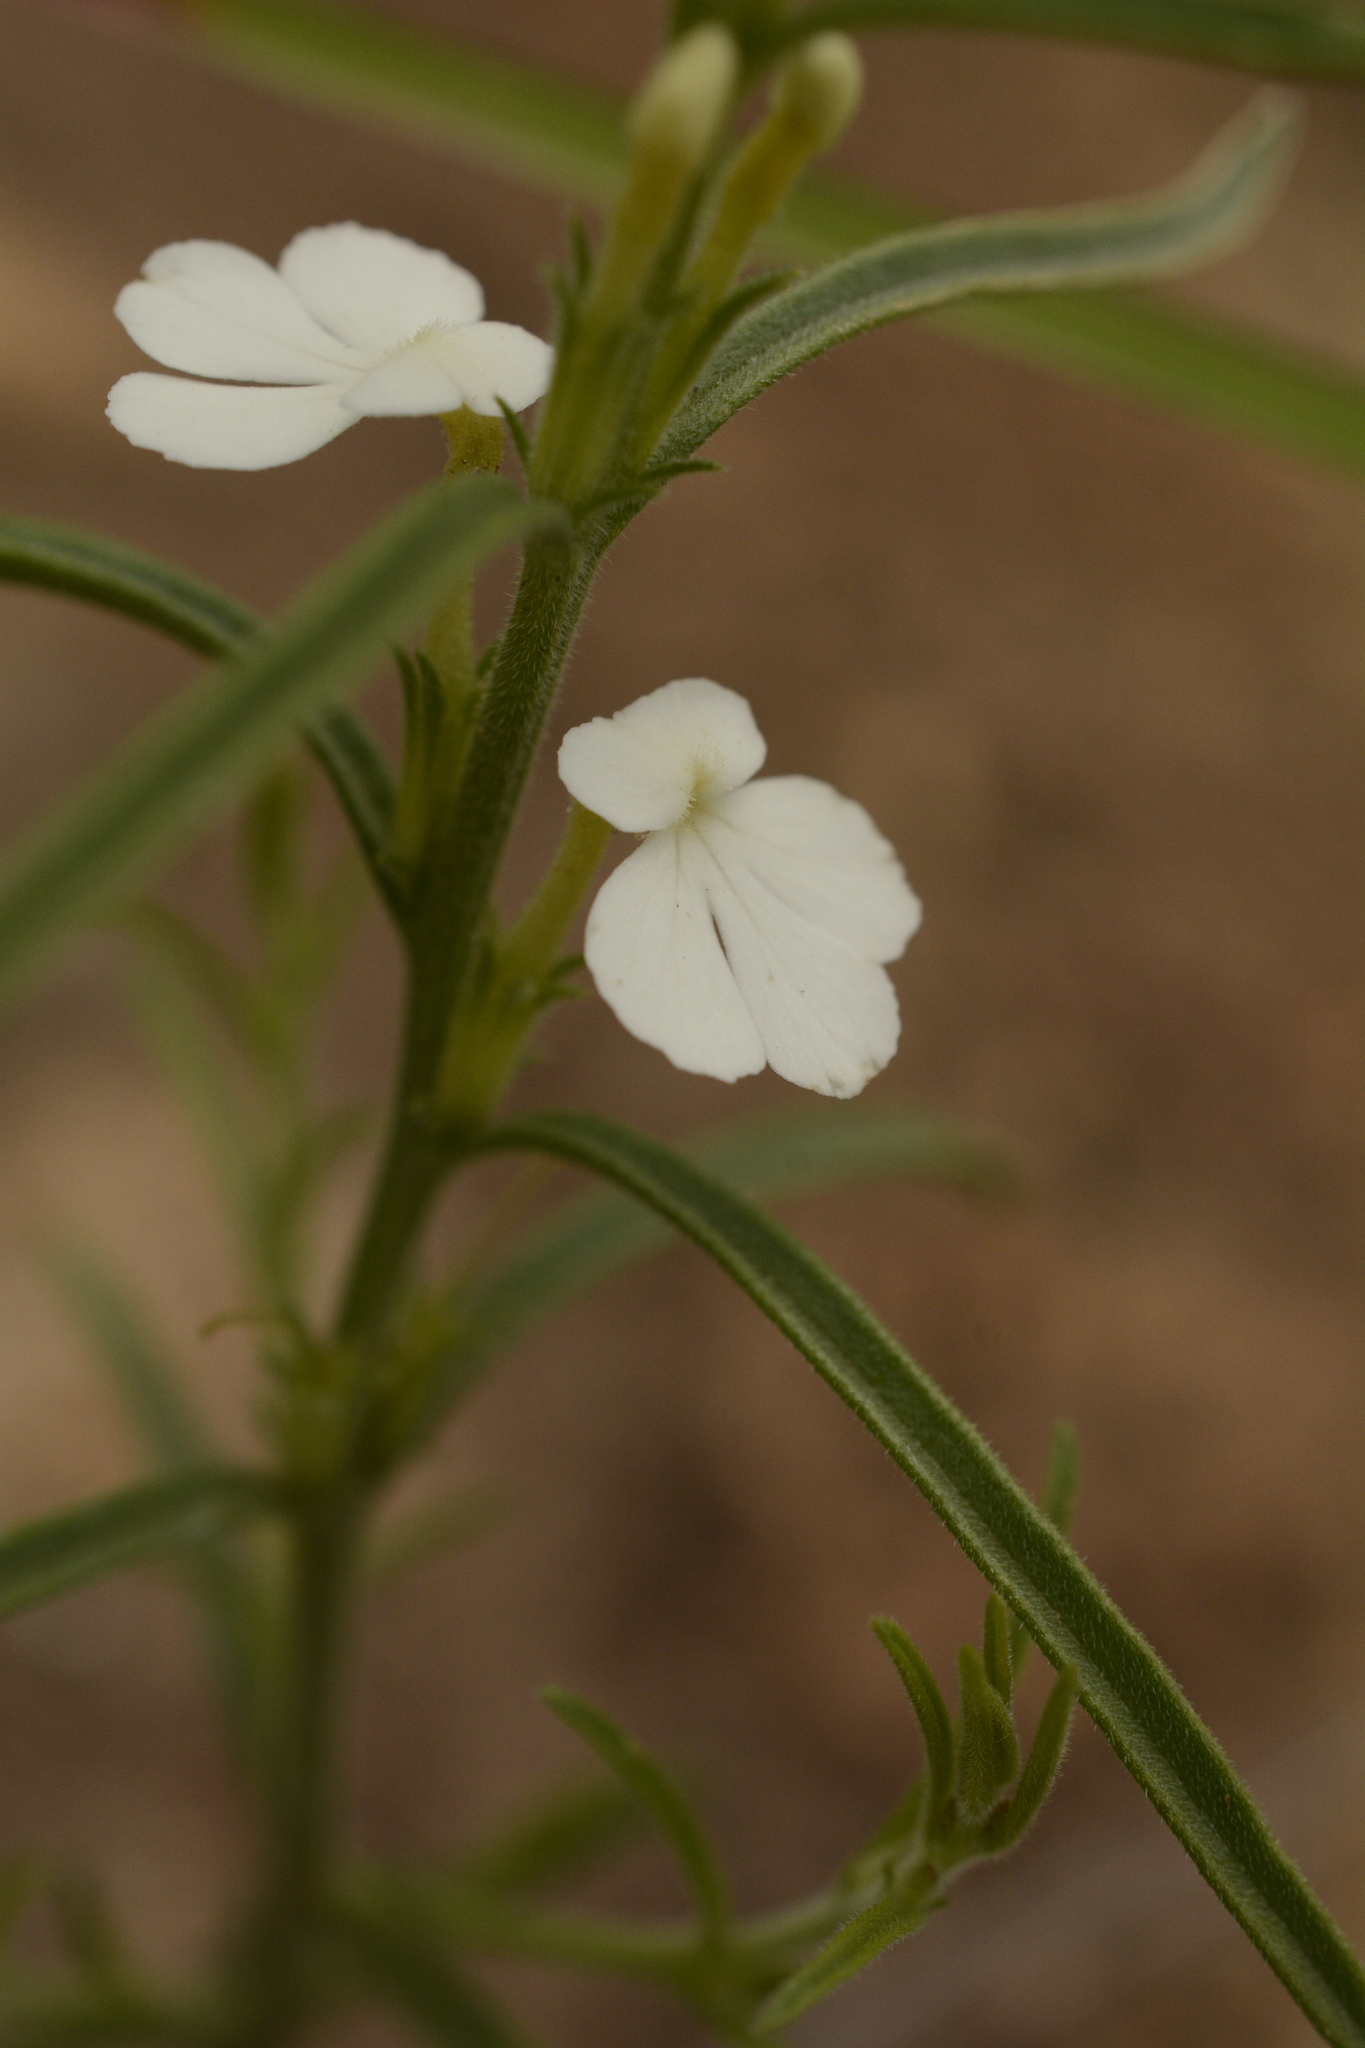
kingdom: Plantae
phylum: Tracheophyta
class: Magnoliopsida
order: Lamiales
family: Orobanchaceae
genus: Striga
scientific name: Striga densiflora
